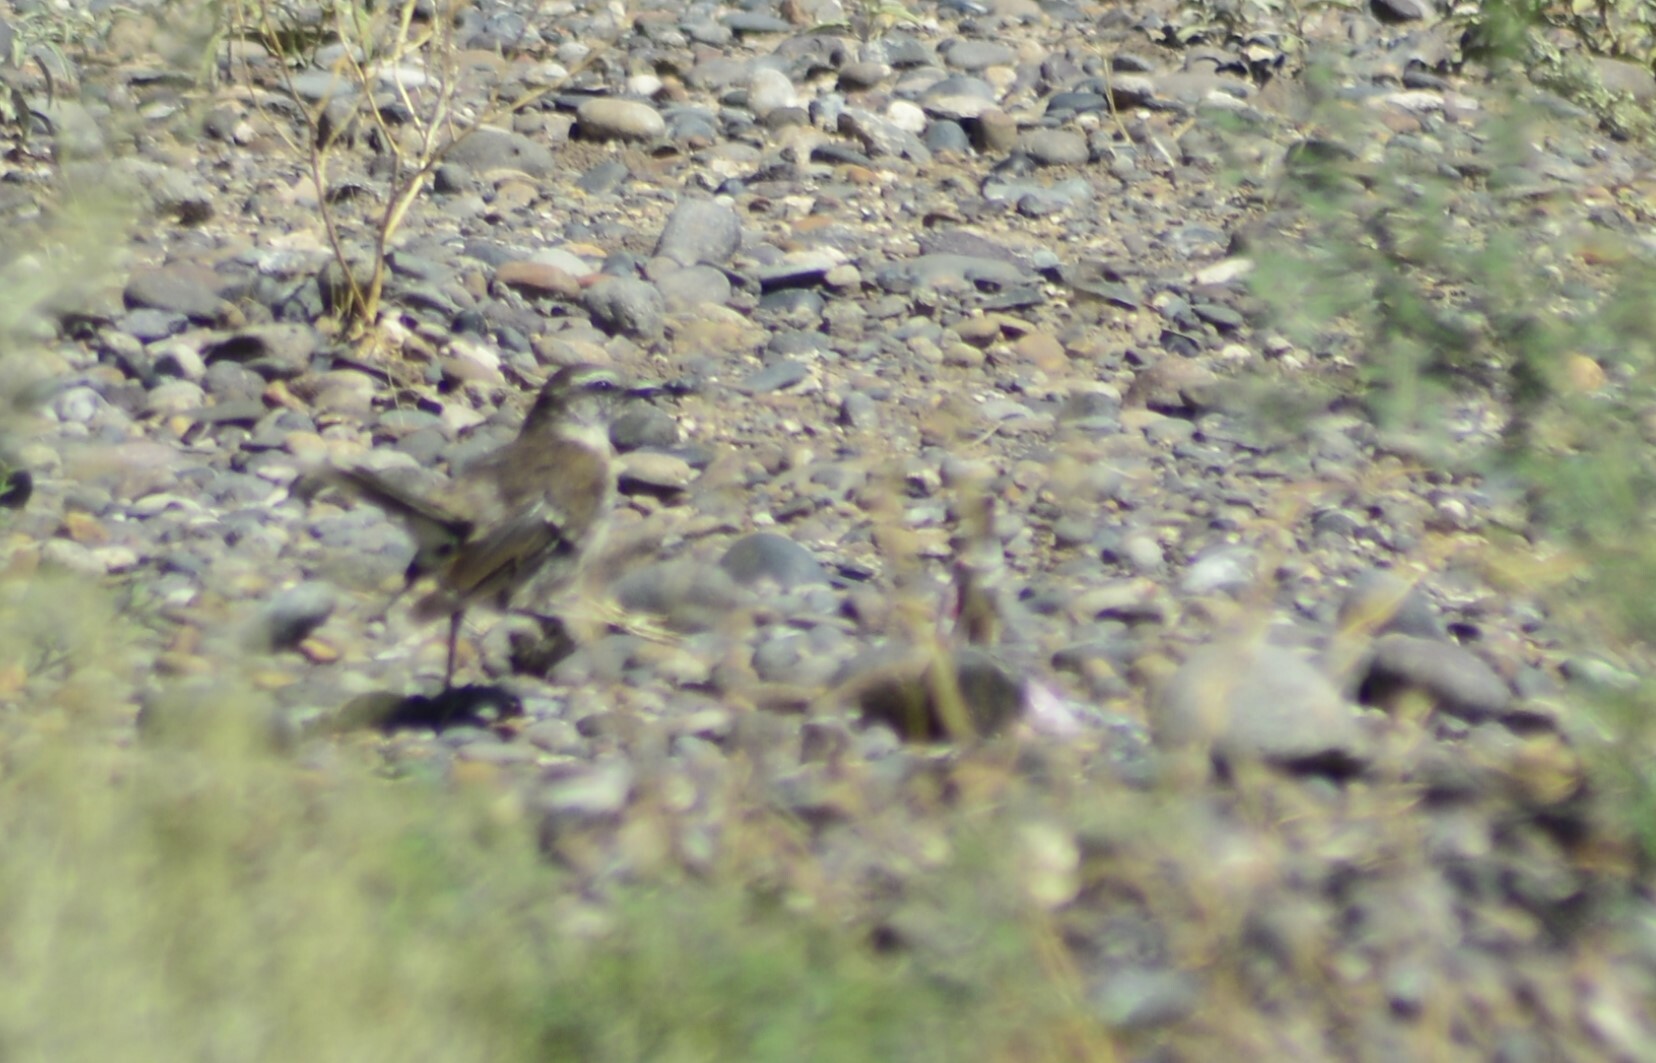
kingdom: Animalia
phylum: Chordata
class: Aves
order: Passeriformes
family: Mimidae
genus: Mimus
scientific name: Mimus saturninus
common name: Chalk-browed mockingbird
